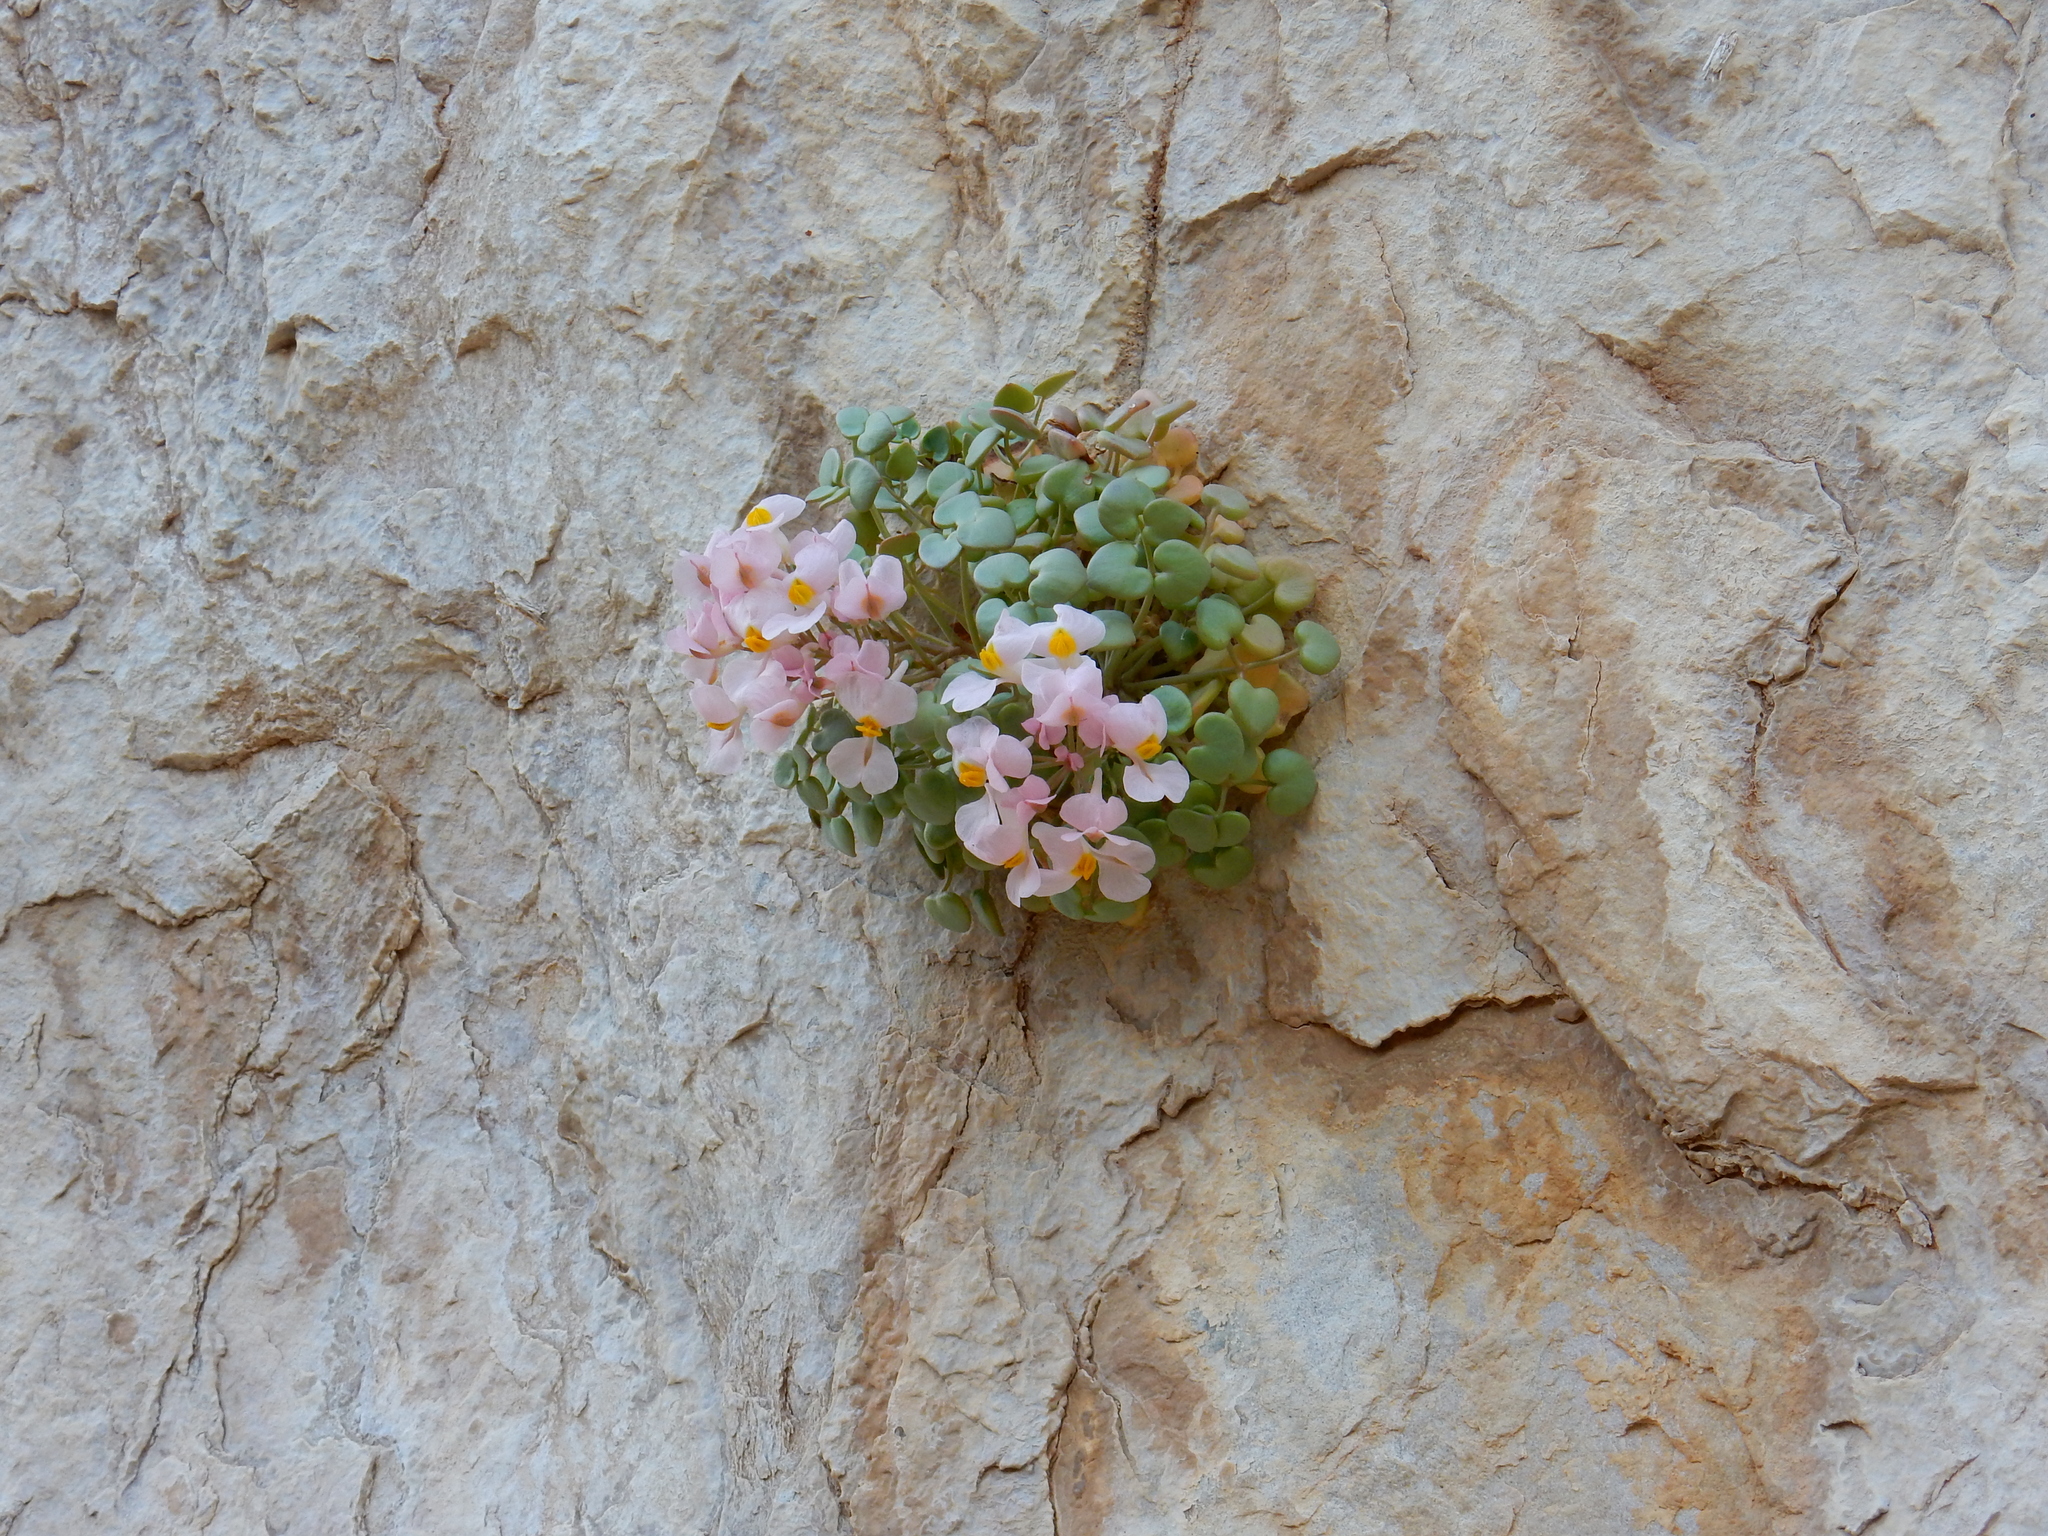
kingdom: Plantae
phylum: Tracheophyta
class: Magnoliopsida
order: Ranunculales
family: Papaveraceae
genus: Sarcocapnos
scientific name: Sarcocapnos enneaphylla
